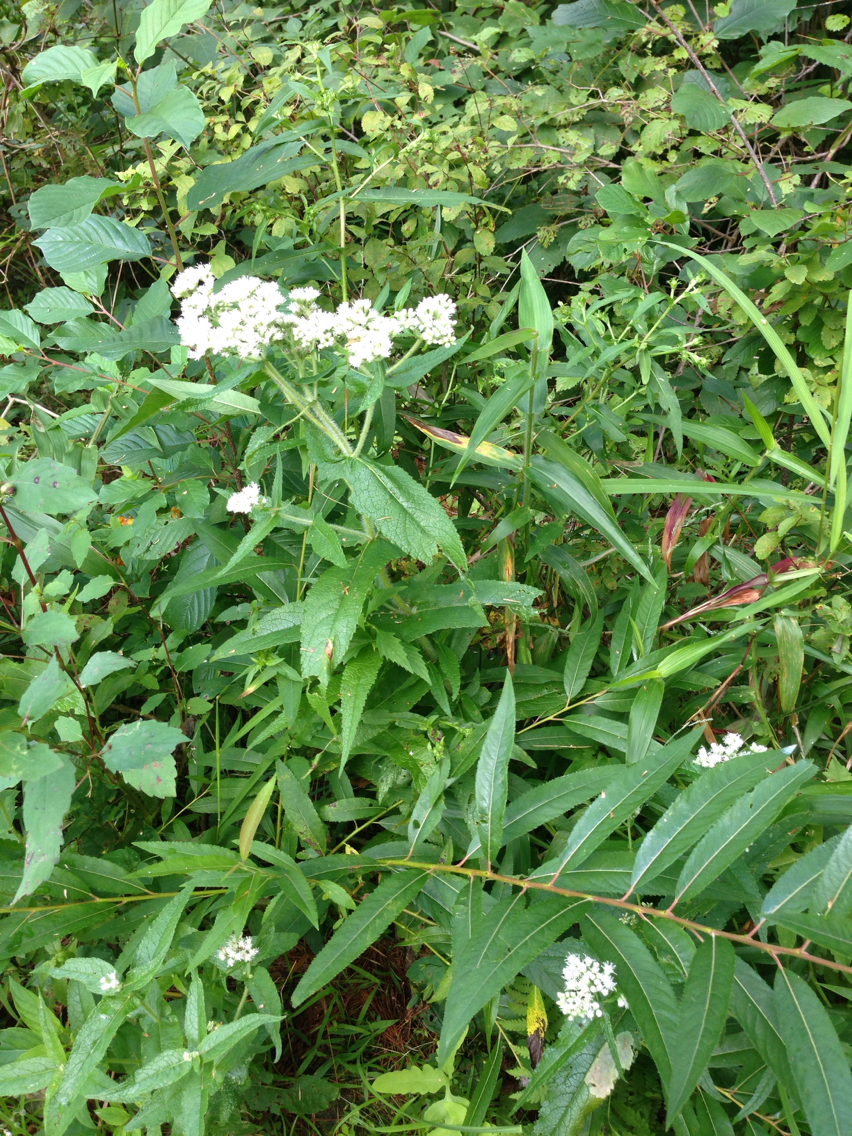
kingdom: Plantae
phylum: Tracheophyta
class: Magnoliopsida
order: Asterales
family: Asteraceae
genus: Eupatorium
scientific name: Eupatorium perfoliatum
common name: Boneset
